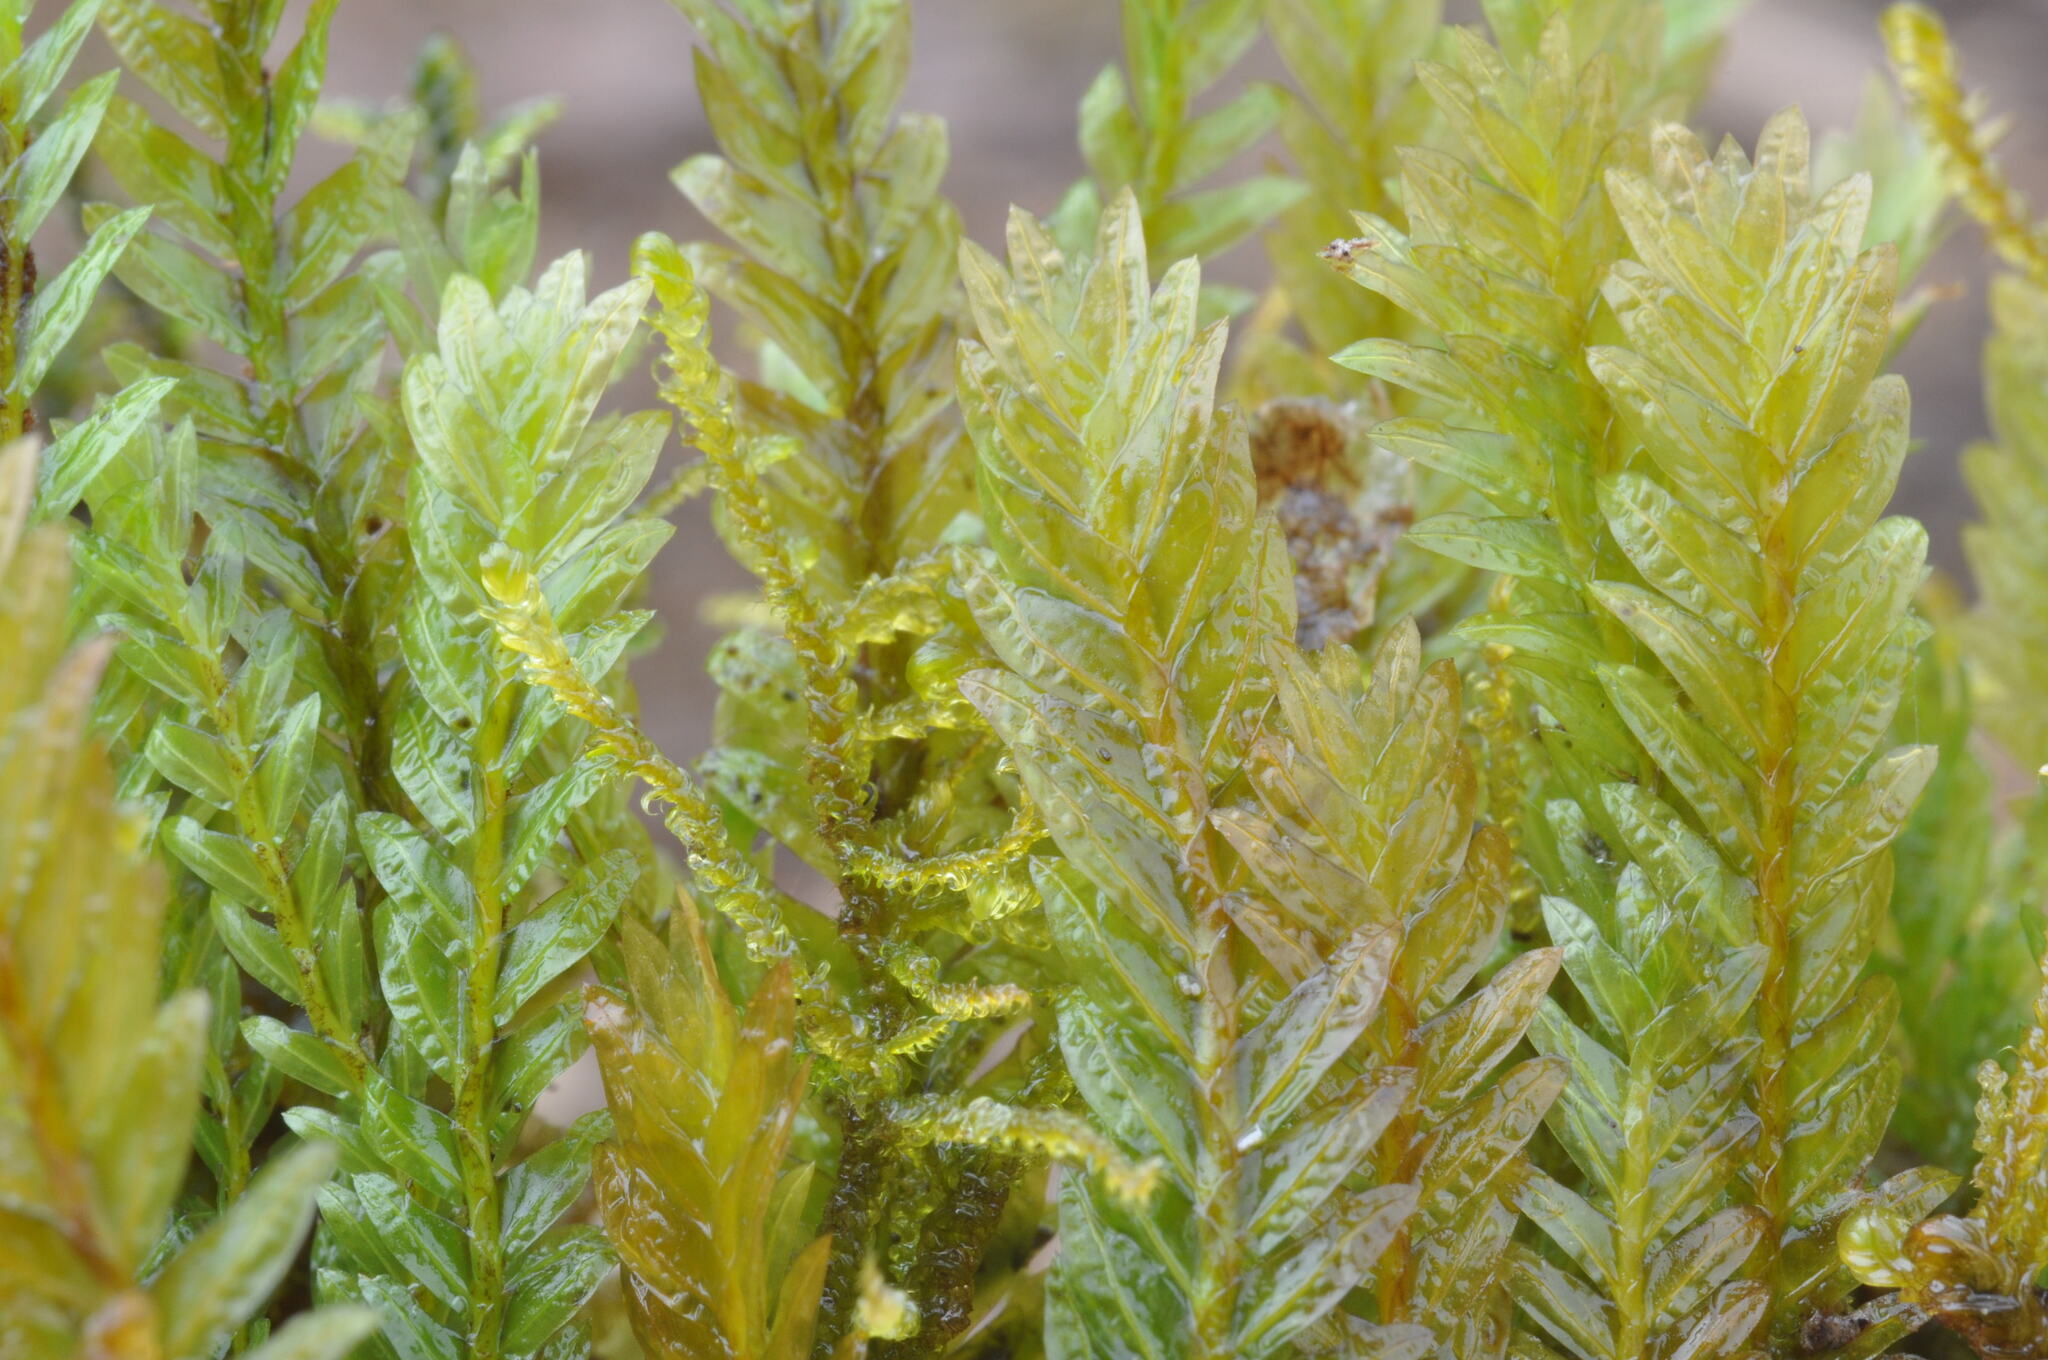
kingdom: Plantae
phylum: Bryophyta
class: Bryopsida
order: Dicranales
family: Fissidentaceae
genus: Fissidens
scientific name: Fissidens adianthoides
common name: Maidenhair pocket moss
